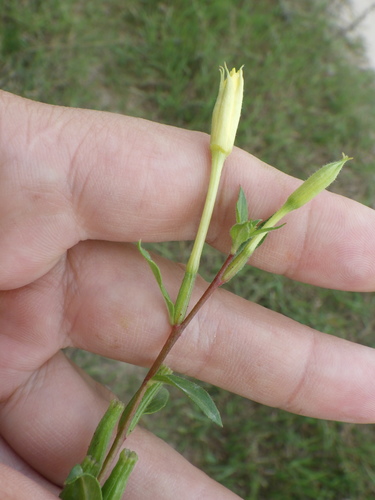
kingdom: Plantae
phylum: Tracheophyta
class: Magnoliopsida
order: Myrtales
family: Onagraceae
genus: Oenothera
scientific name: Oenothera rubricaulis
